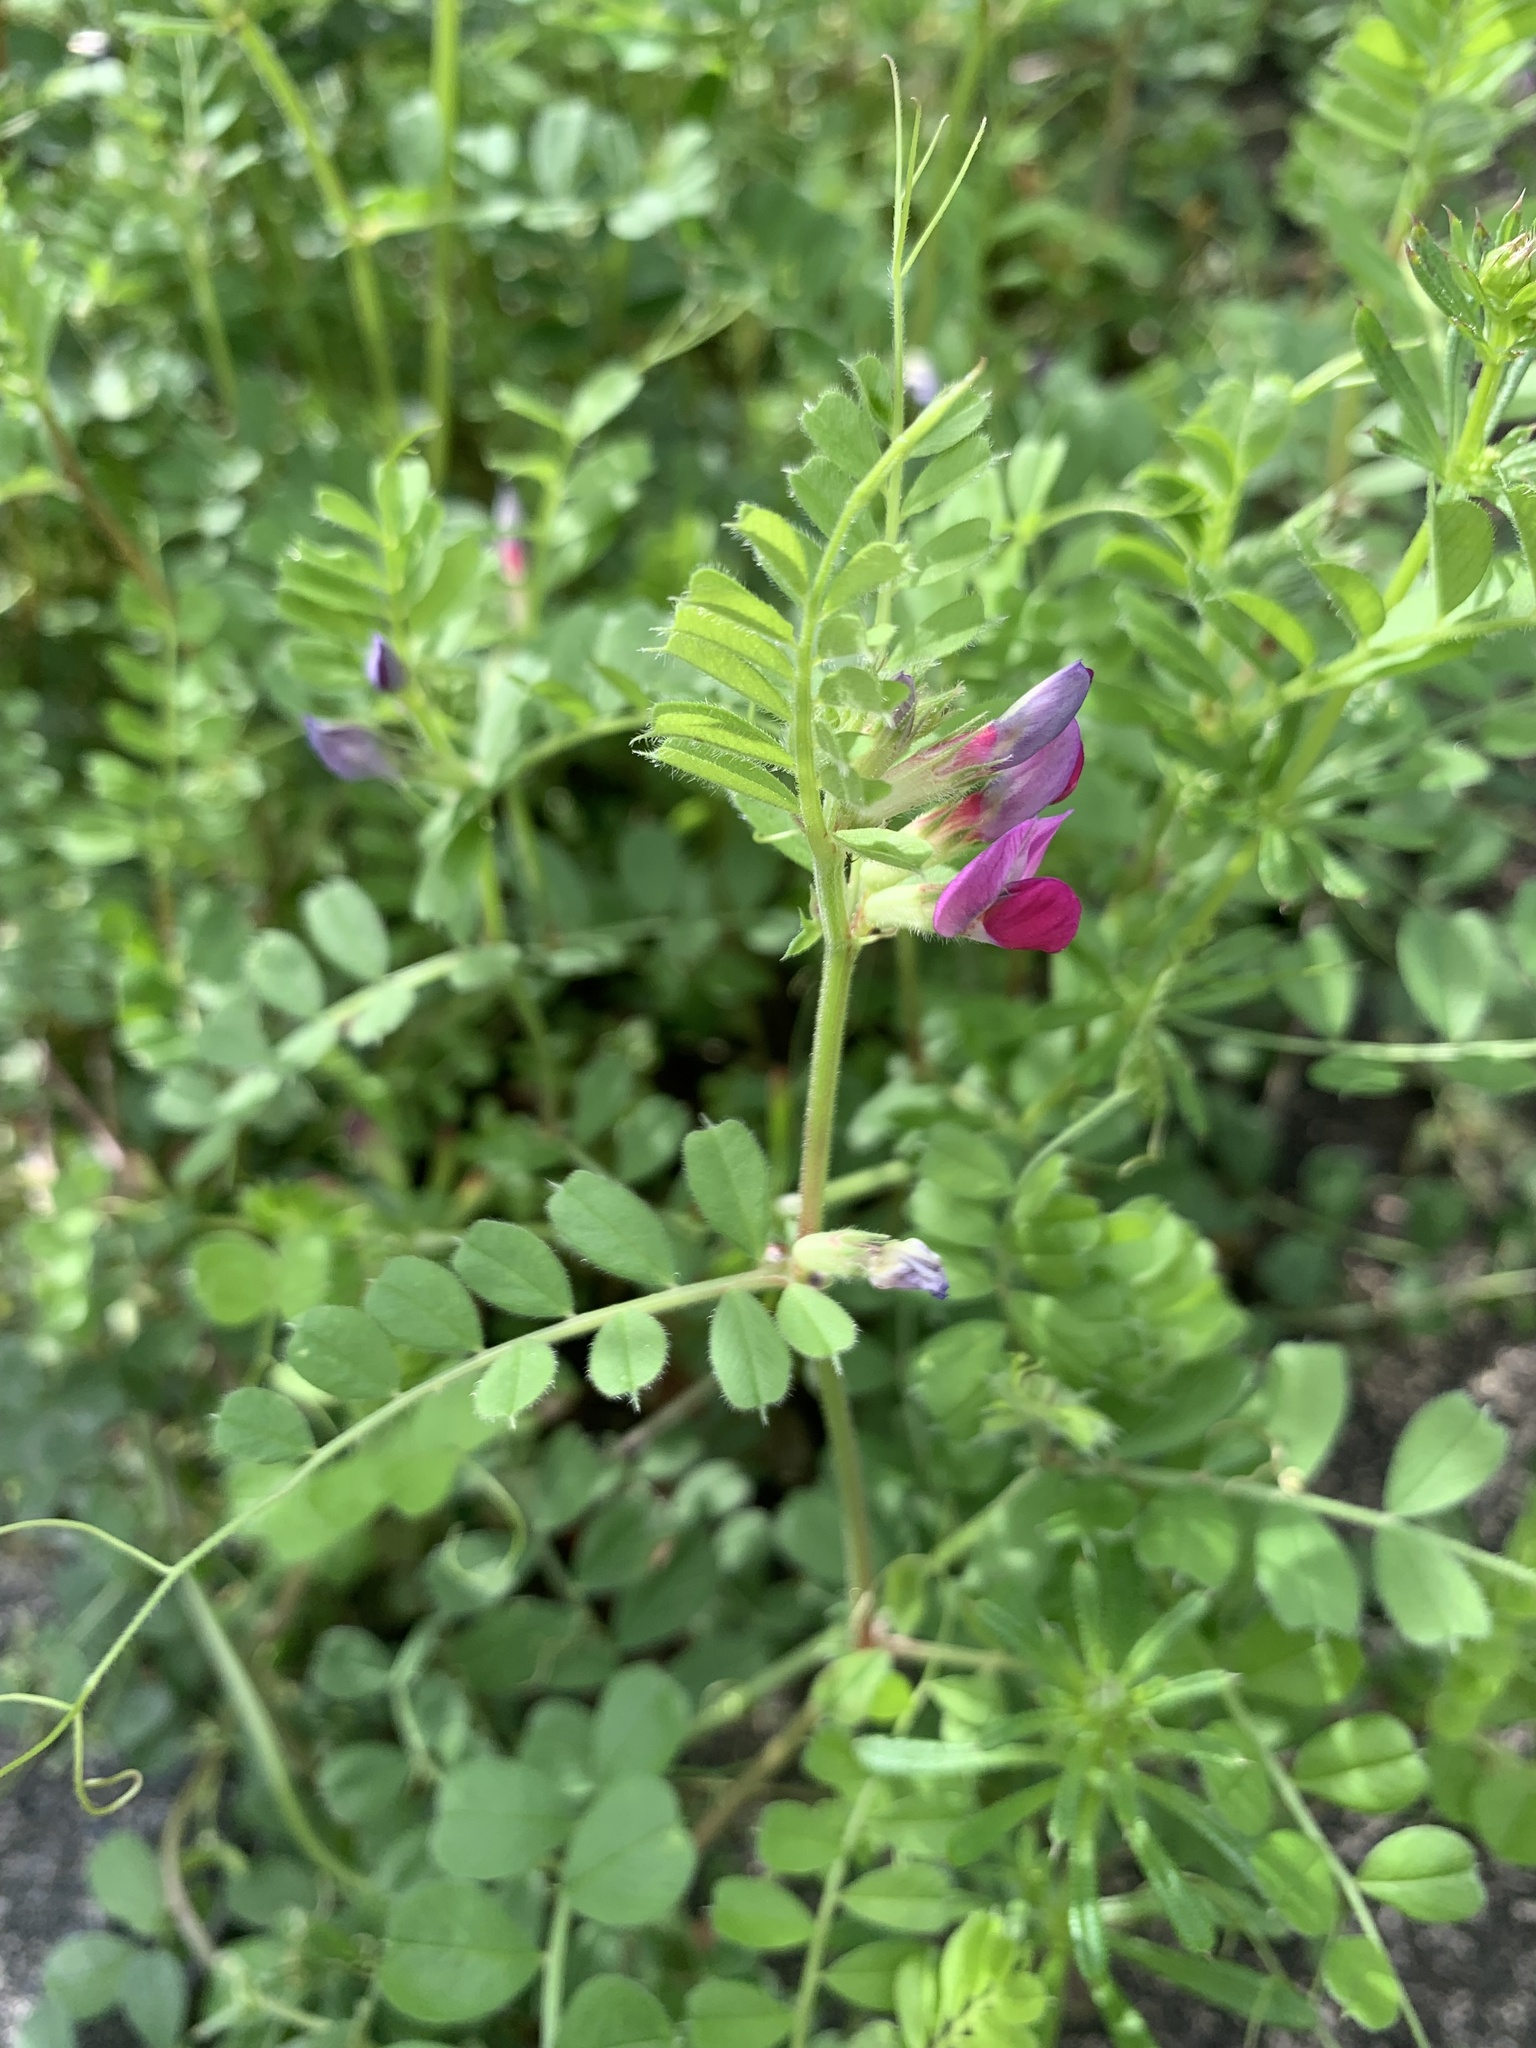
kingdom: Plantae
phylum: Tracheophyta
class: Magnoliopsida
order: Fabales
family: Fabaceae
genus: Vicia
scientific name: Vicia sativa
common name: Garden vetch
